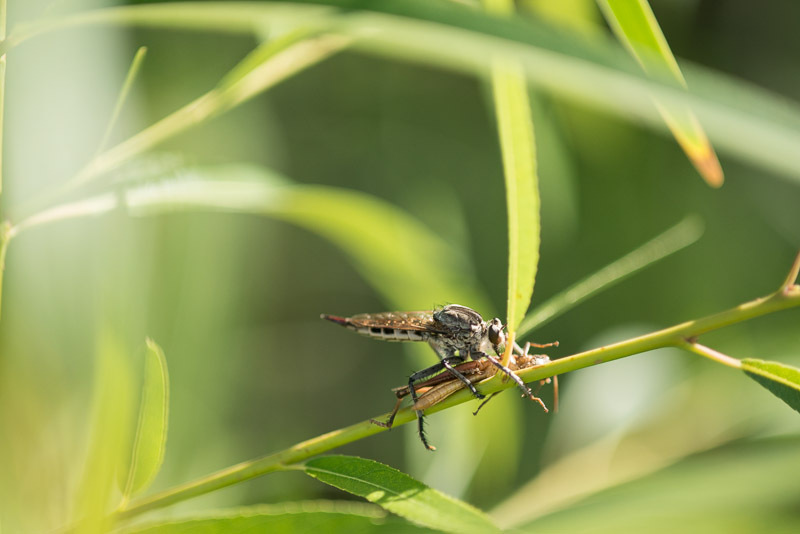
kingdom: Animalia
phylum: Arthropoda
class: Insecta
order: Diptera
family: Asilidae
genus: Triorla
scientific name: Triorla interrupta
